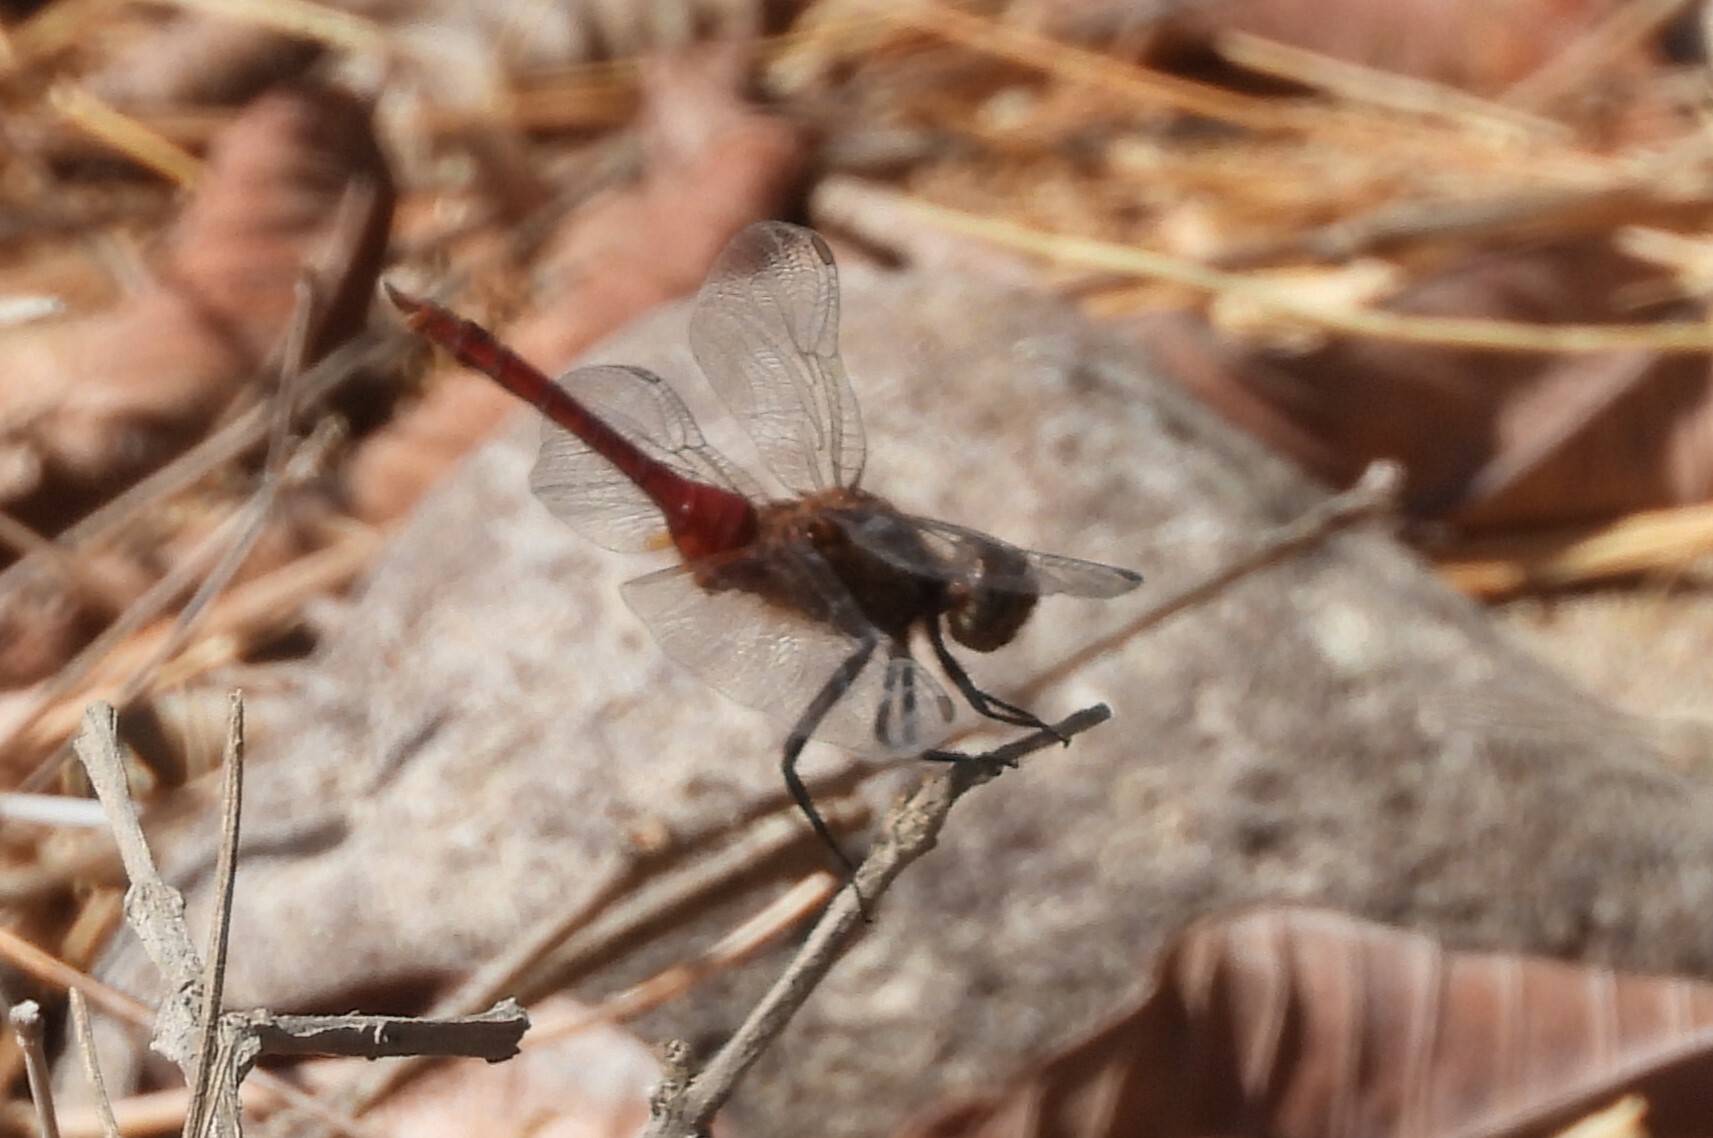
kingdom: Animalia
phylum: Arthropoda
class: Insecta
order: Odonata
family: Libellulidae
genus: Brachymesia
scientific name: Brachymesia furcata
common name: Red-taled pennant
